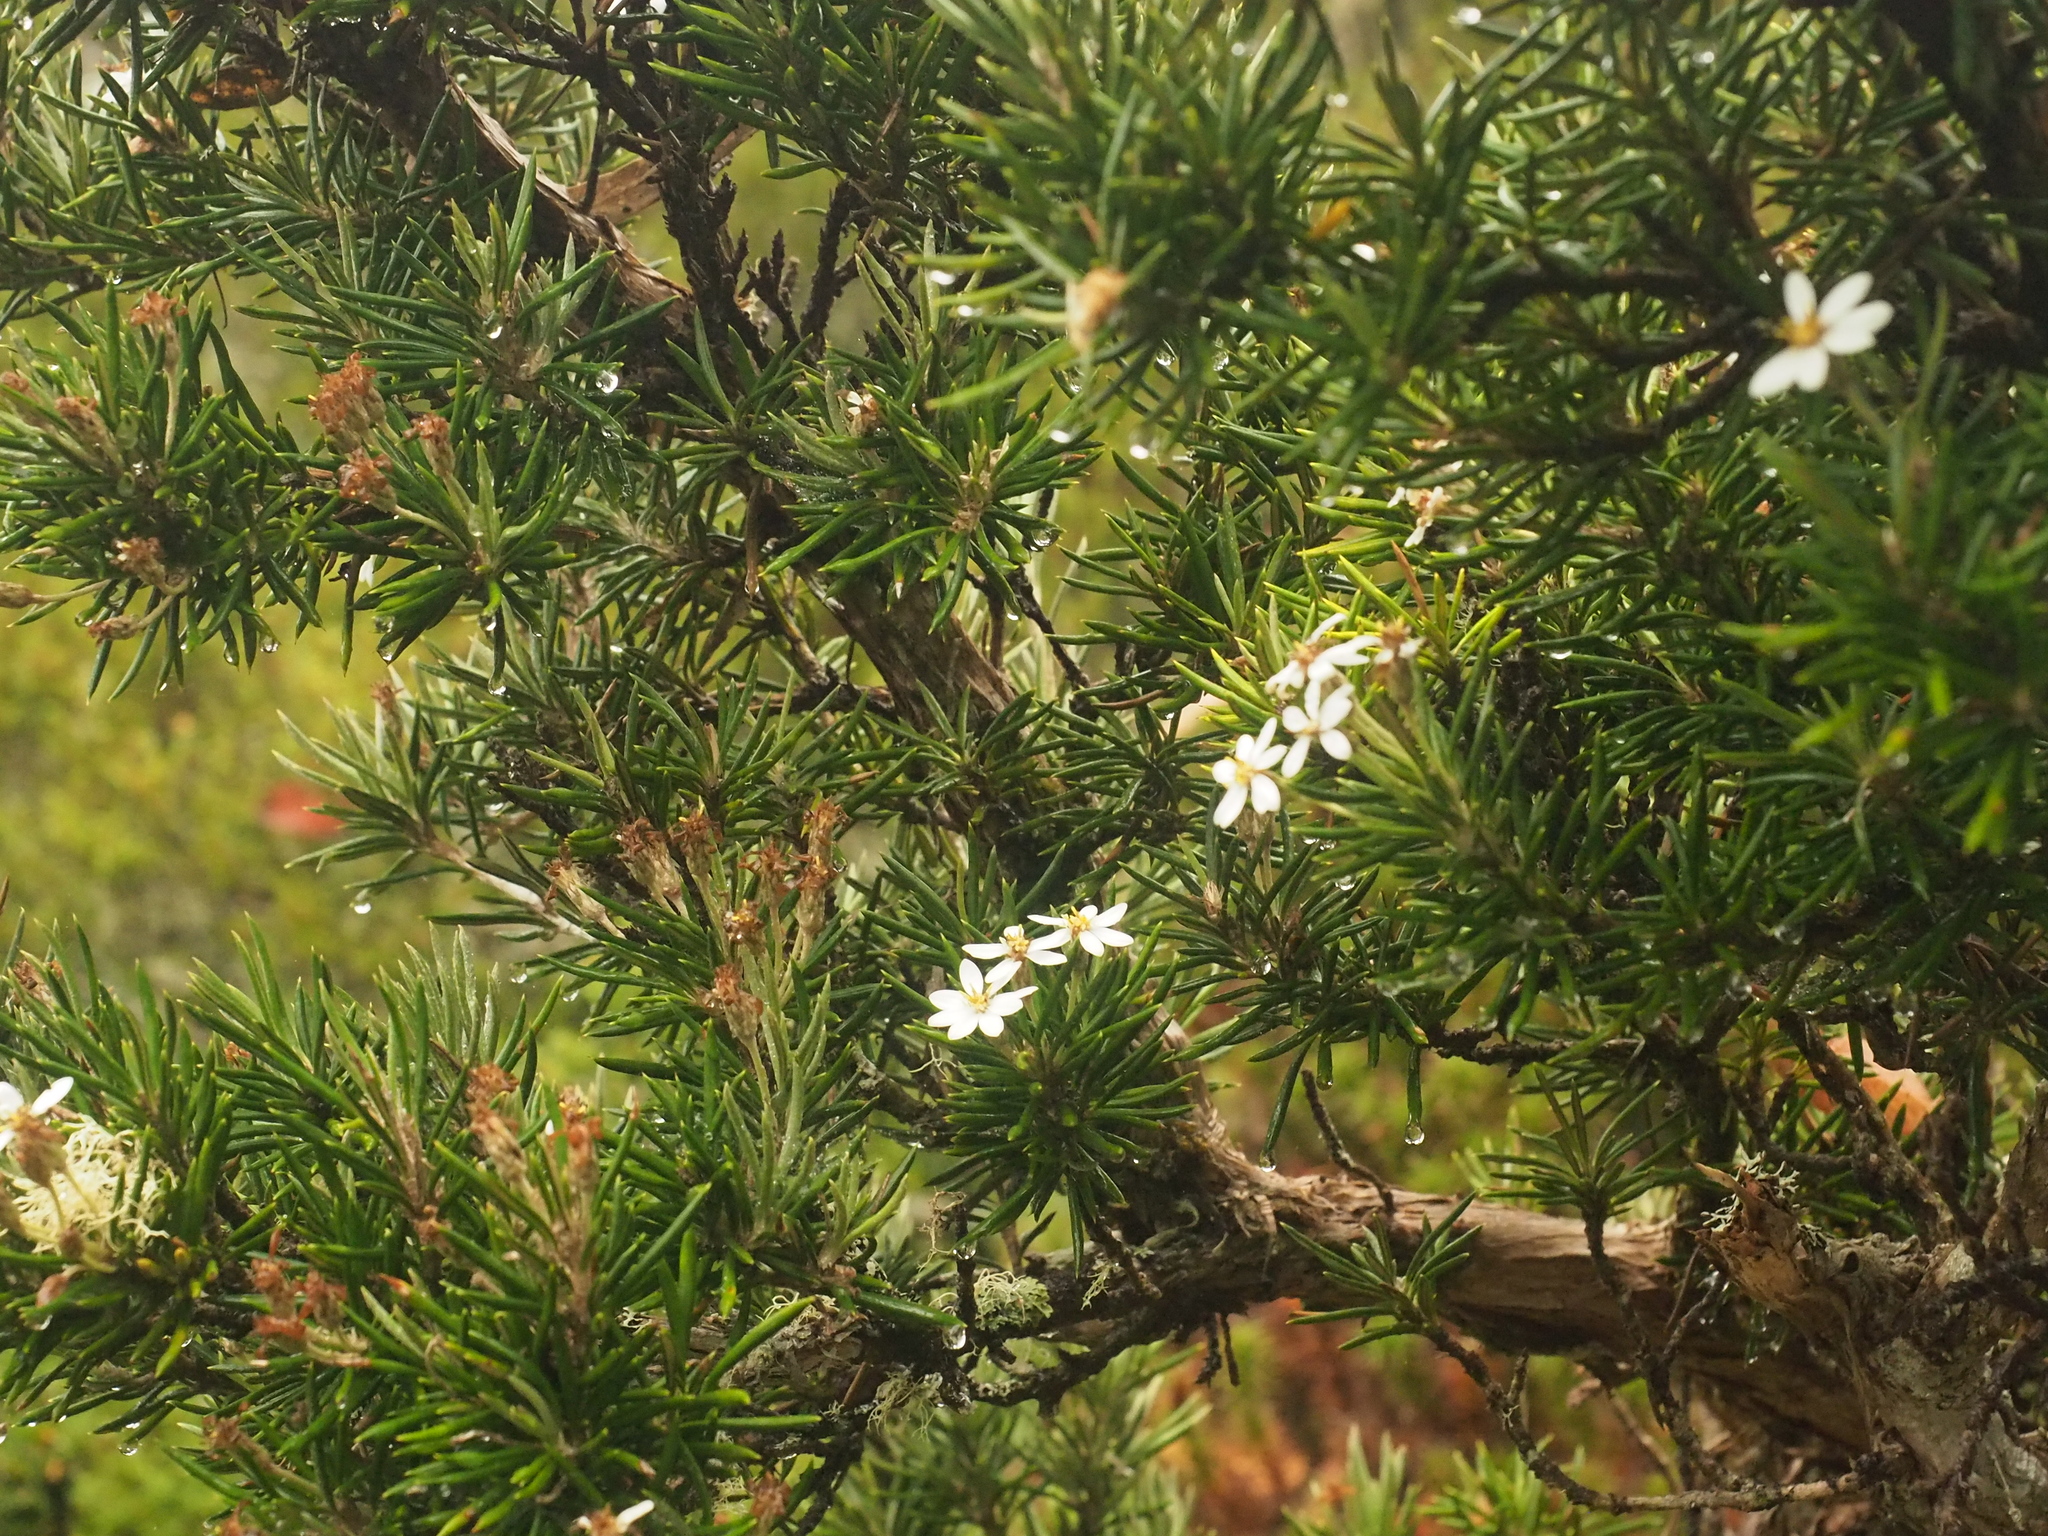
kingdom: Plantae
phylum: Tracheophyta
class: Magnoliopsida
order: Asterales
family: Asteraceae
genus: Olearia
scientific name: Olearia pinifolia
